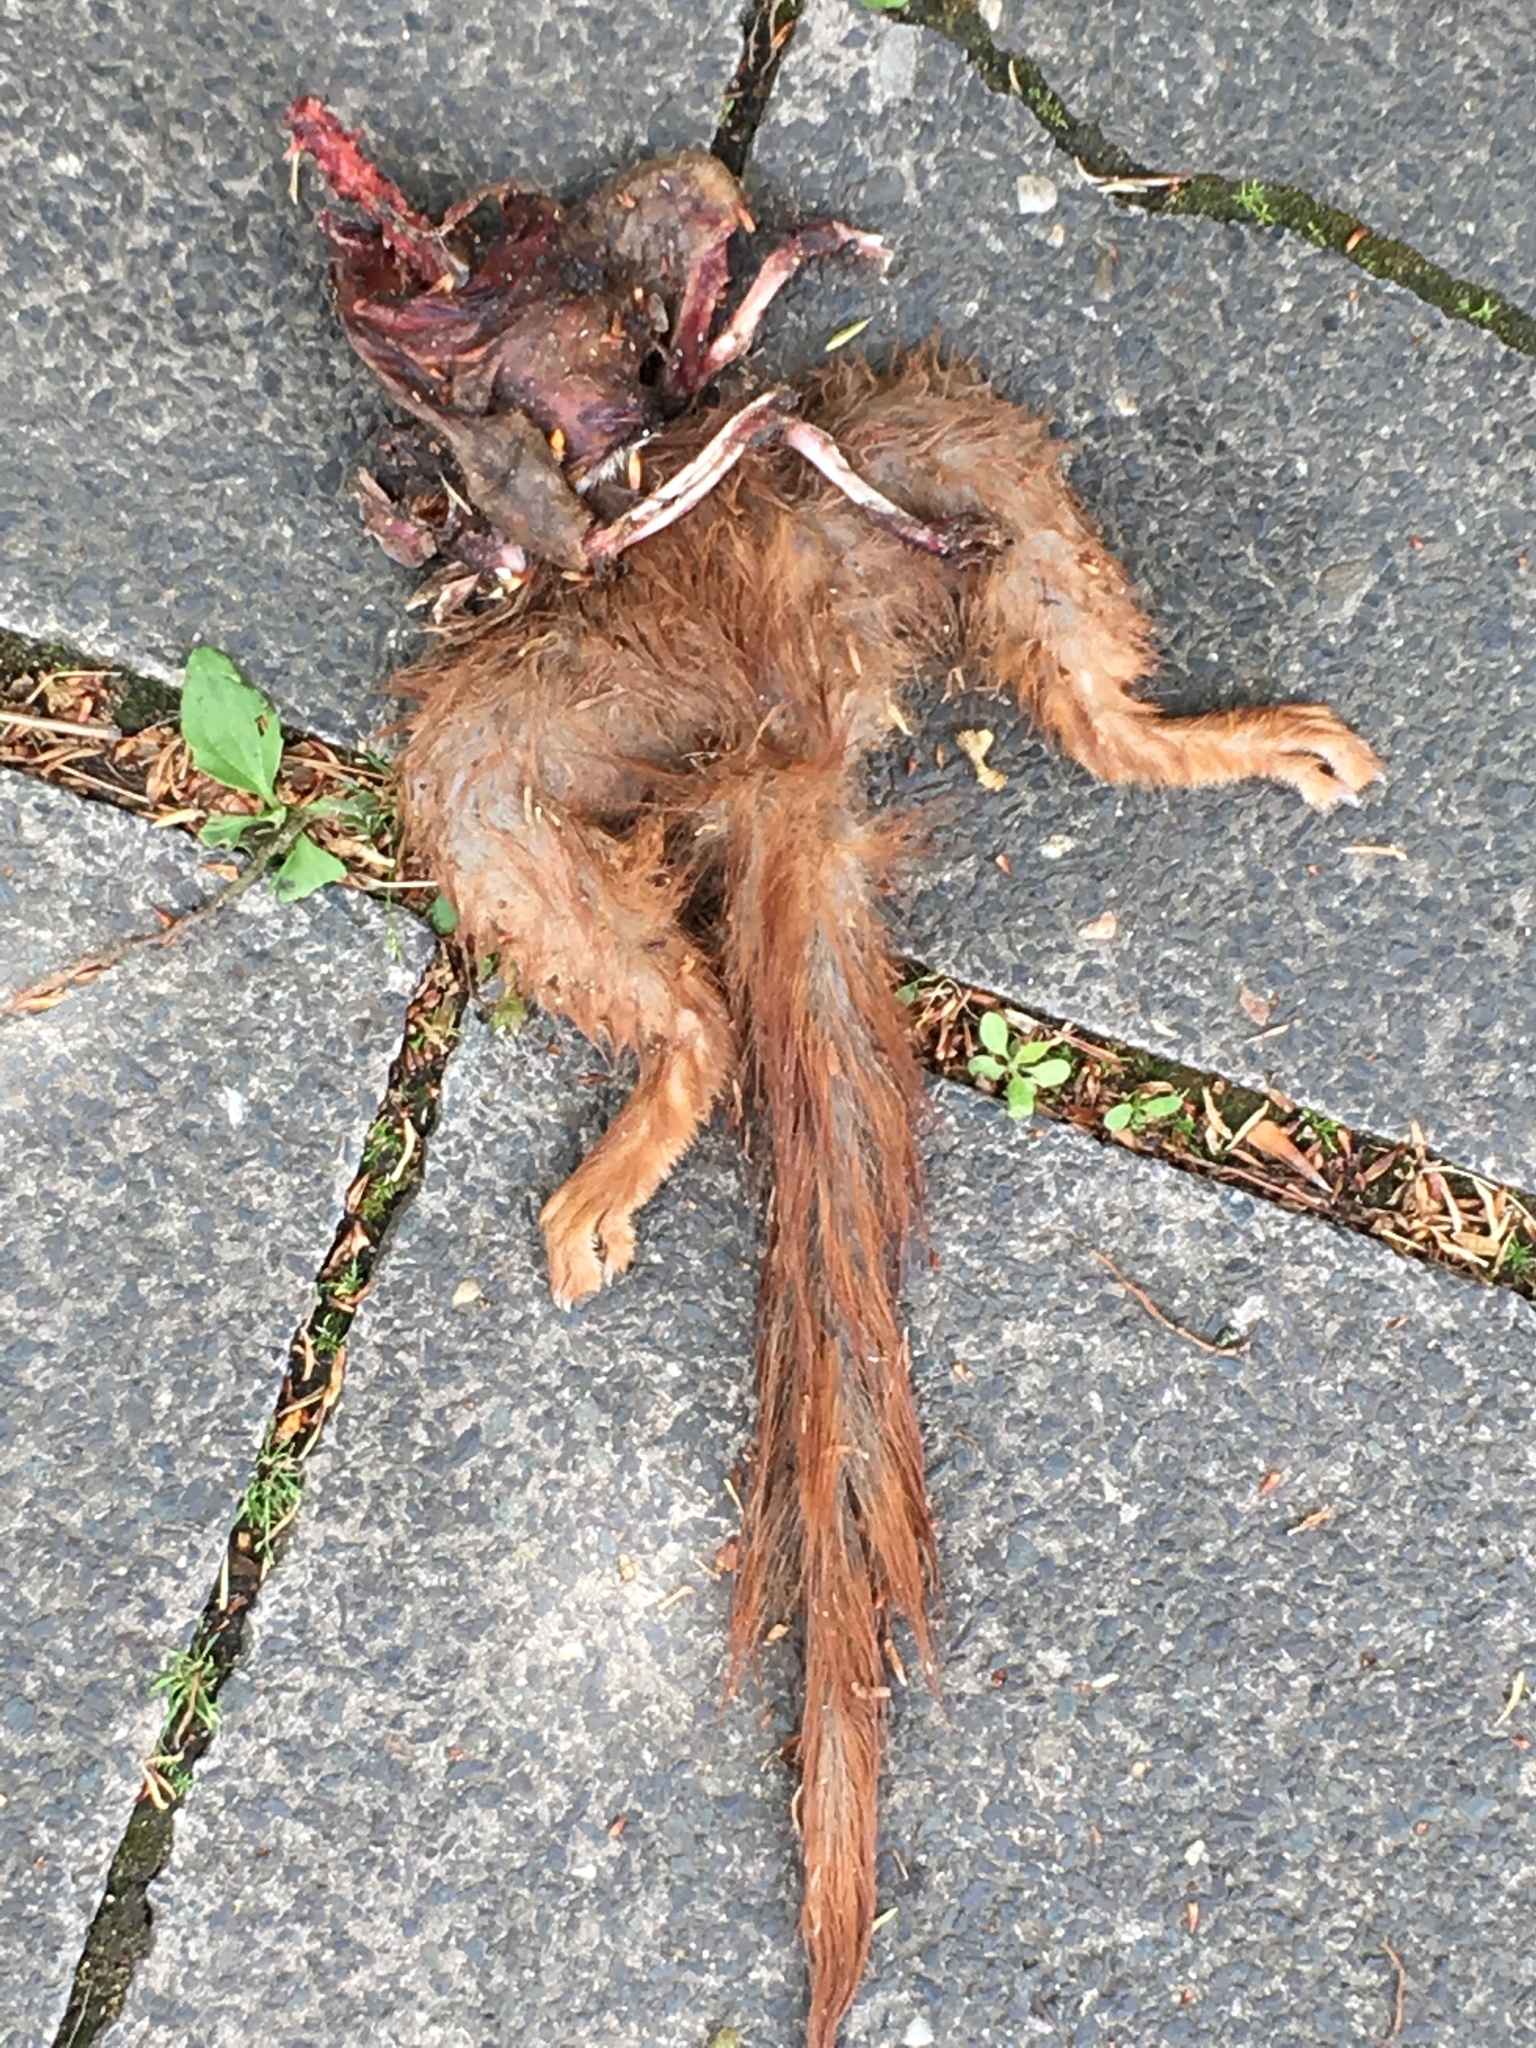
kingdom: Animalia
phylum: Chordata
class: Mammalia
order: Rodentia
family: Sciuridae
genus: Sciurus
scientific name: Sciurus vulgaris
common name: Eurasian red squirrel
